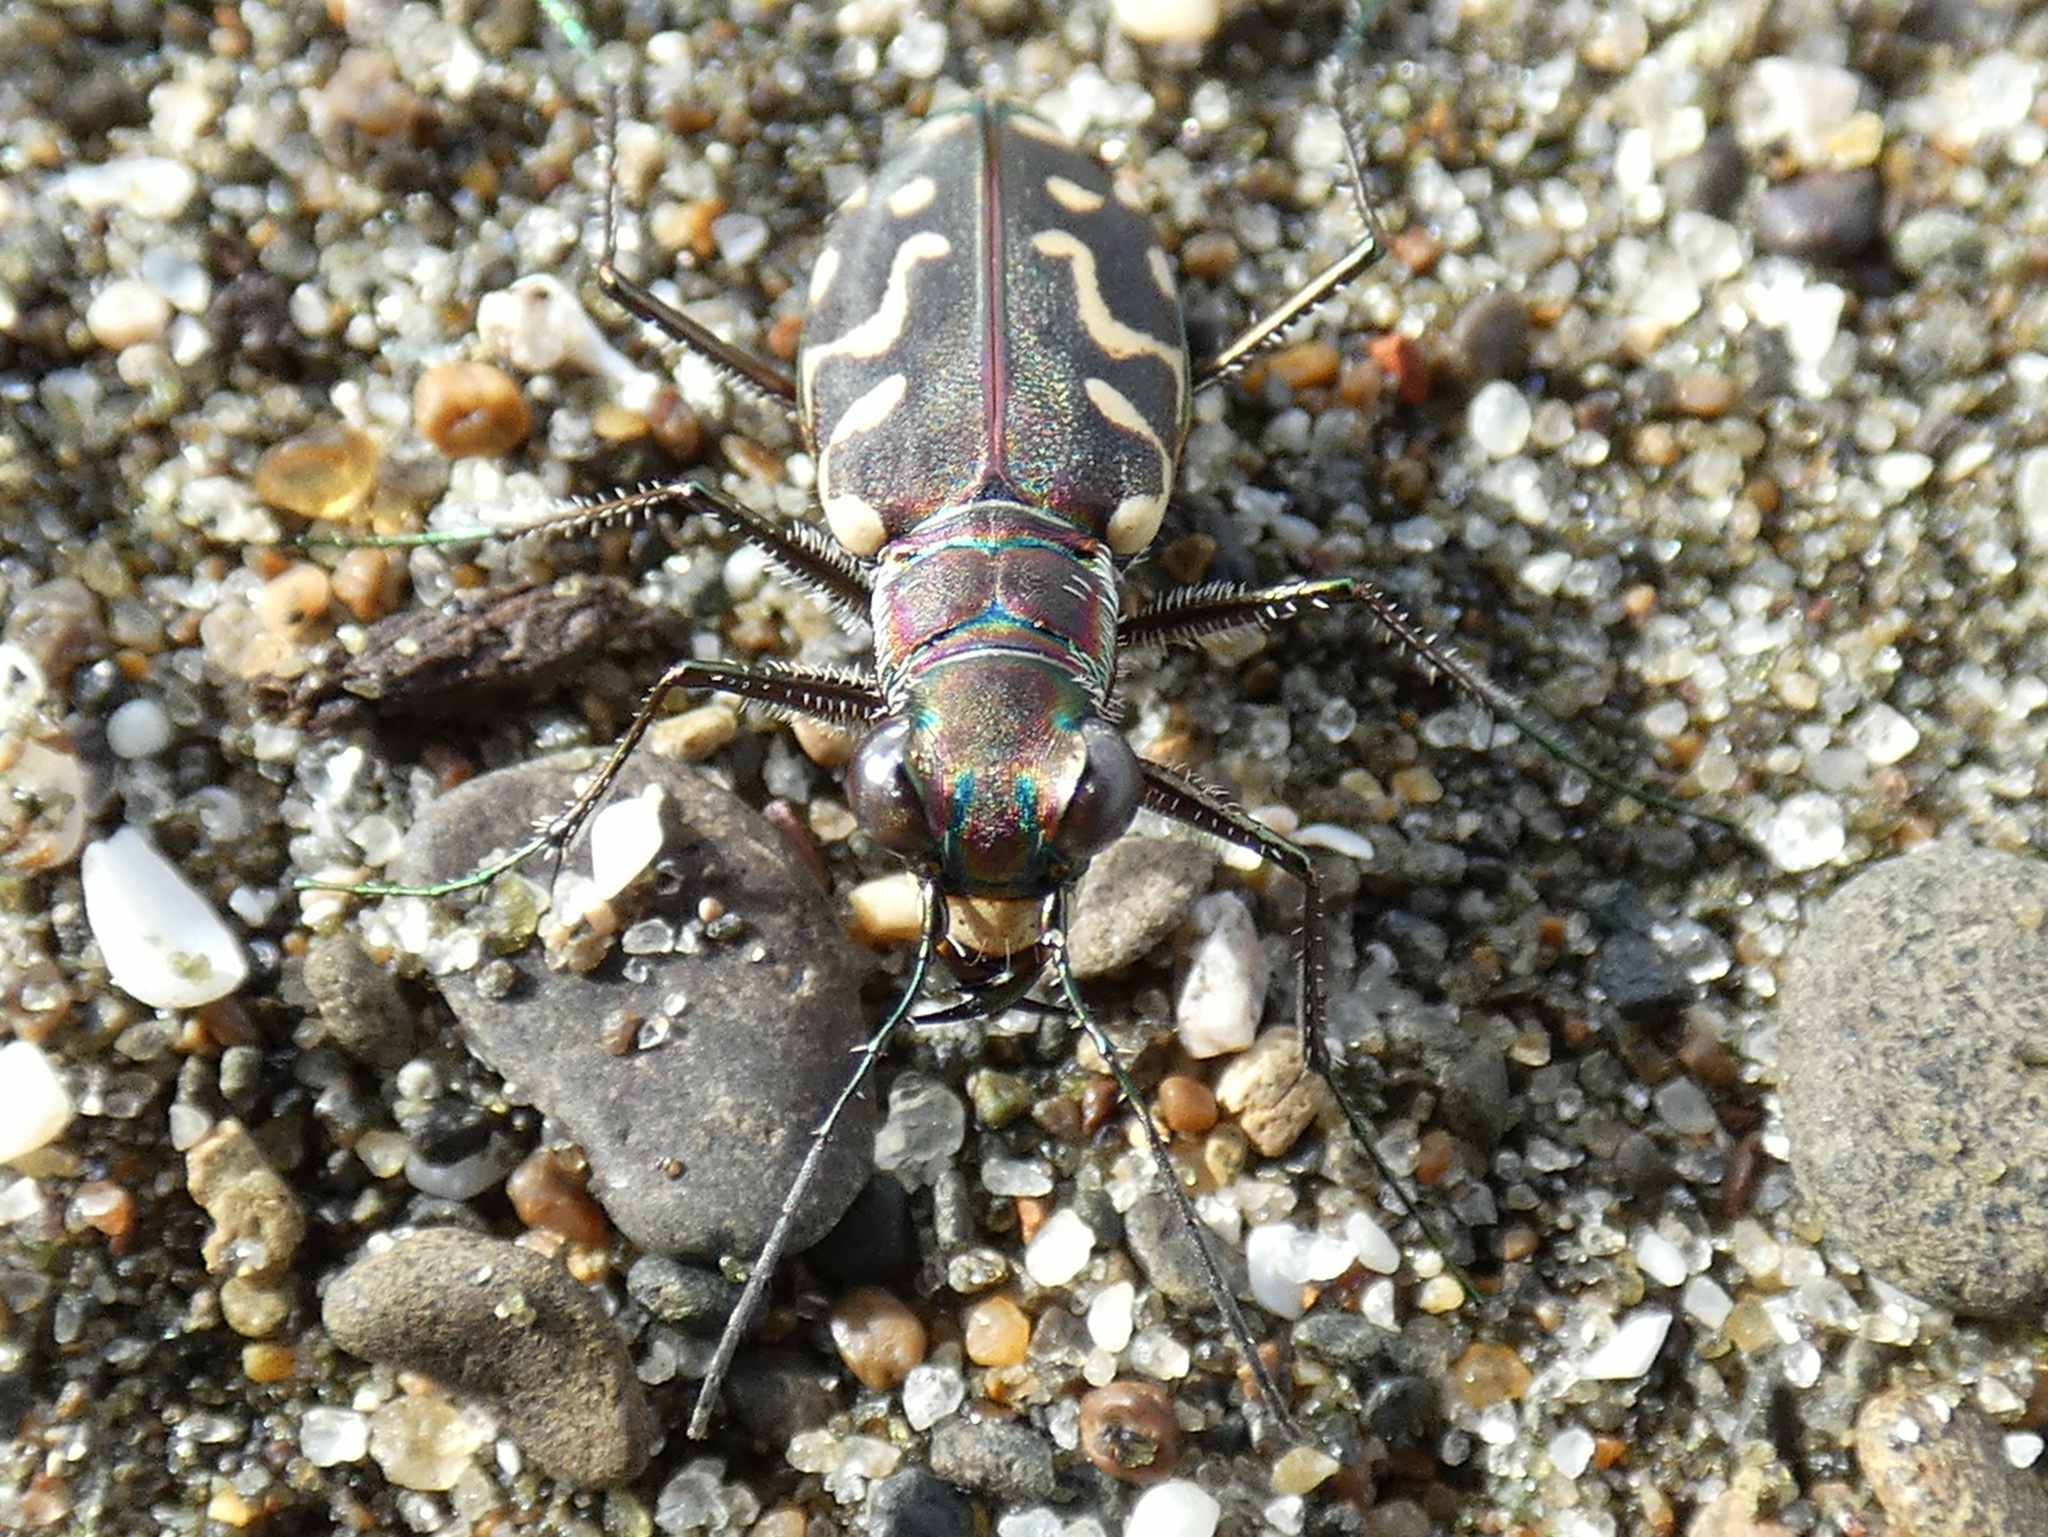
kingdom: Animalia
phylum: Arthropoda
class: Insecta
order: Coleoptera
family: Carabidae
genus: Cicindela
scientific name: Cicindela carthagena
